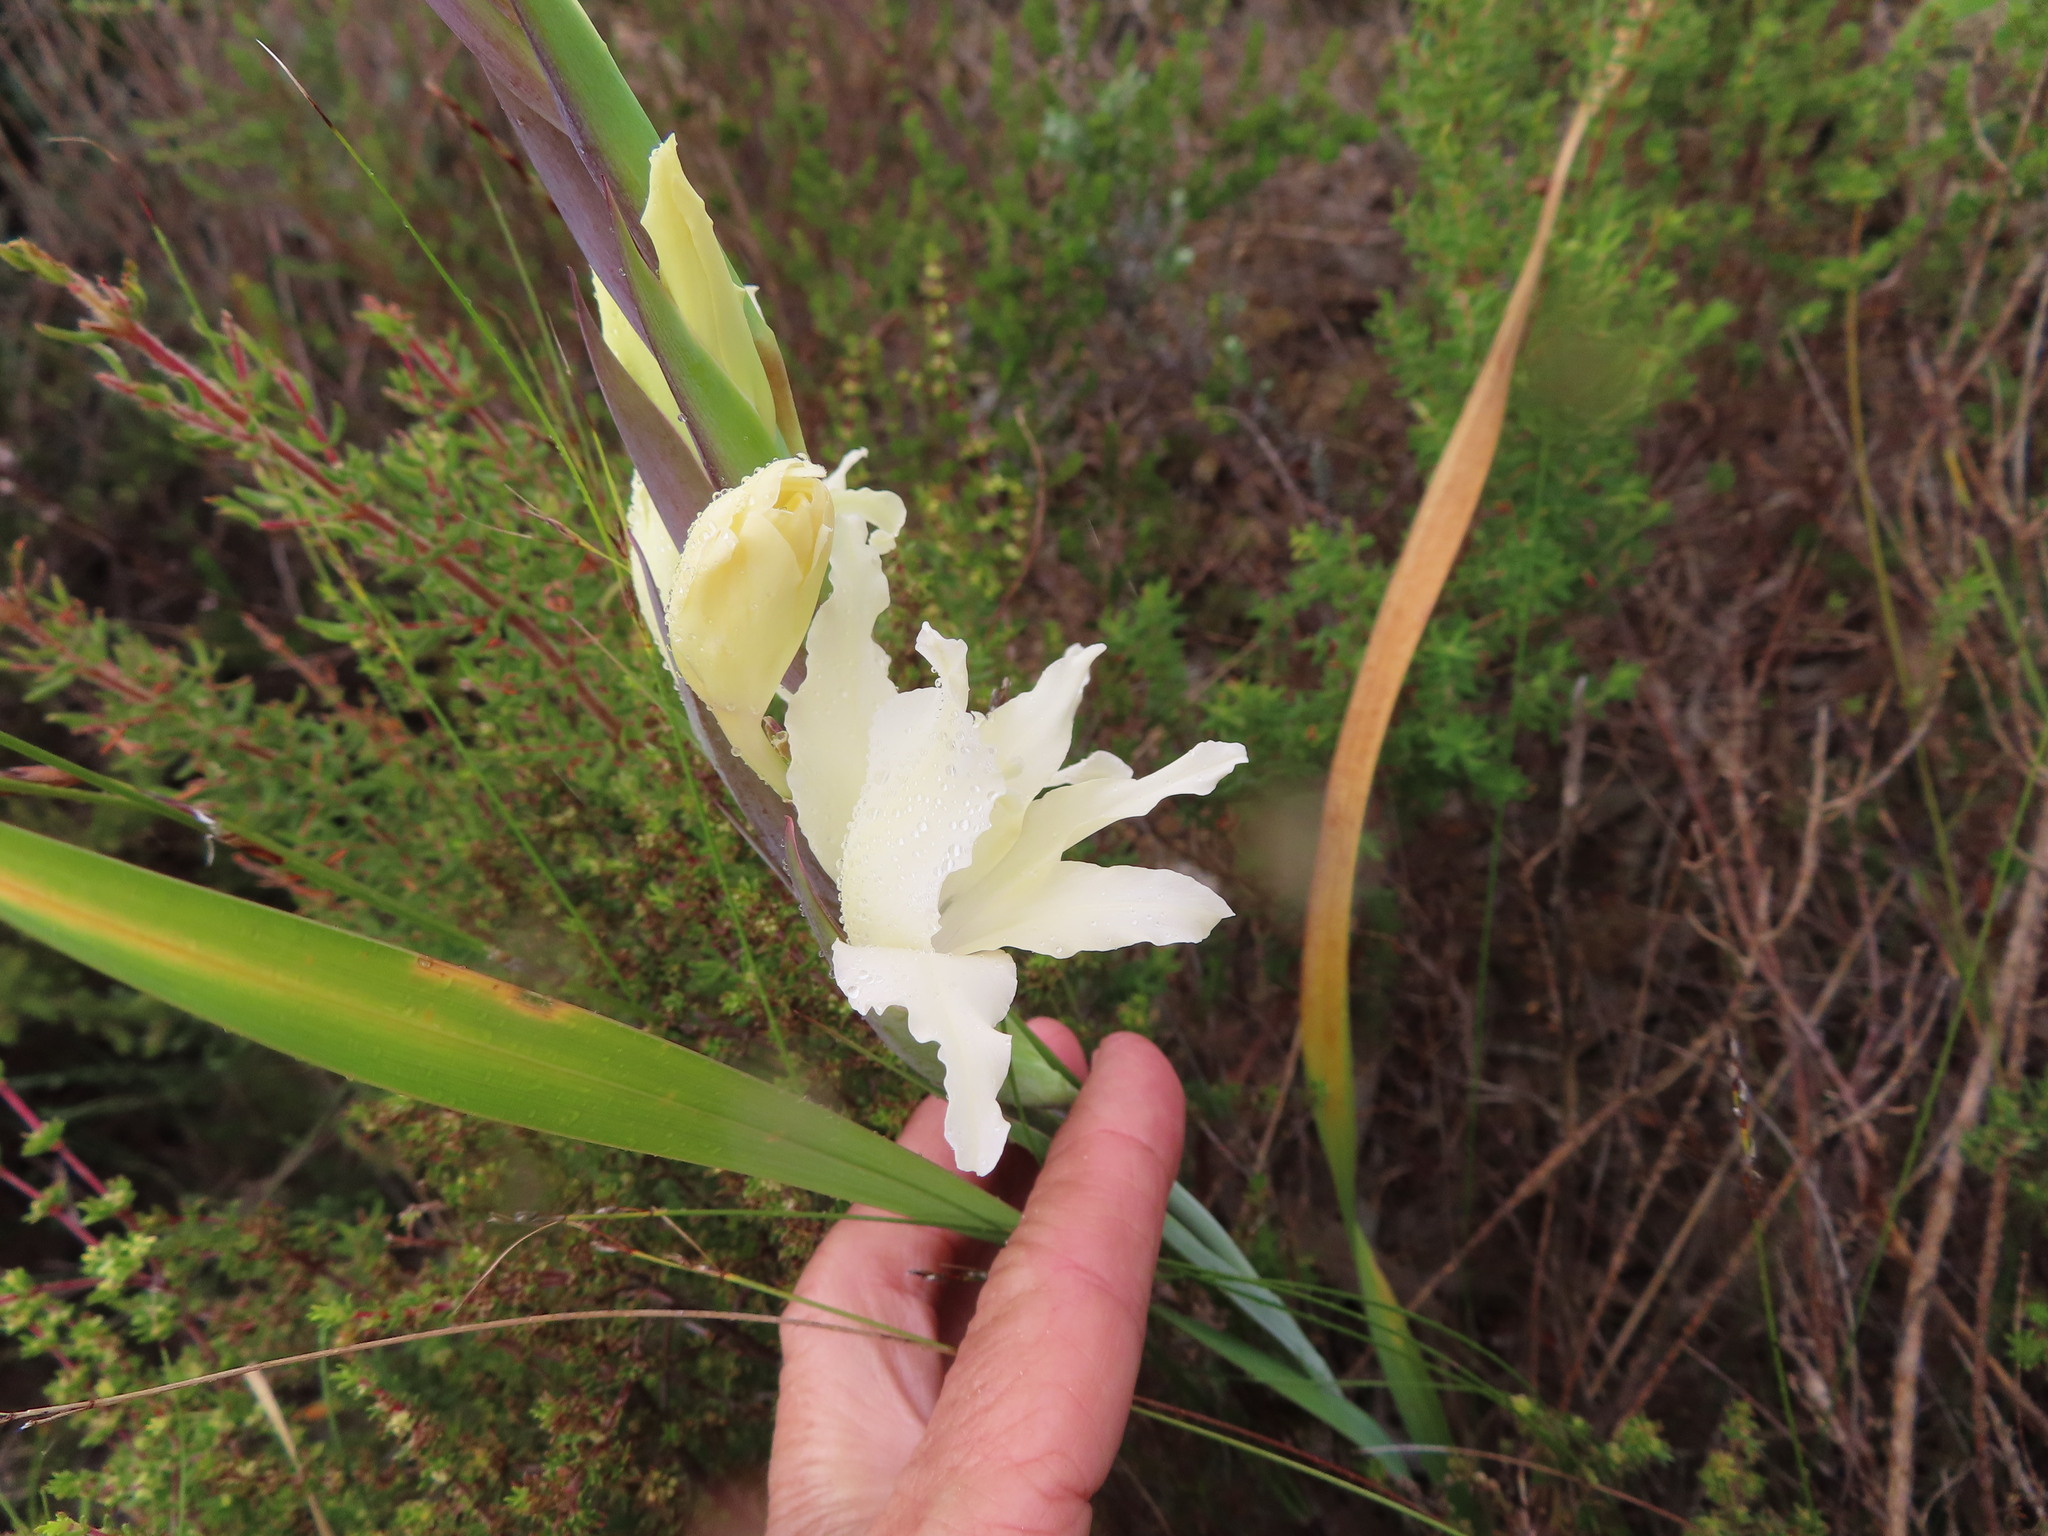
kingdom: Plantae
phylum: Tracheophyta
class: Liliopsida
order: Asparagales
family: Iridaceae
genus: Gladiolus
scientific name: Gladiolus carneus
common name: Painted-lady
